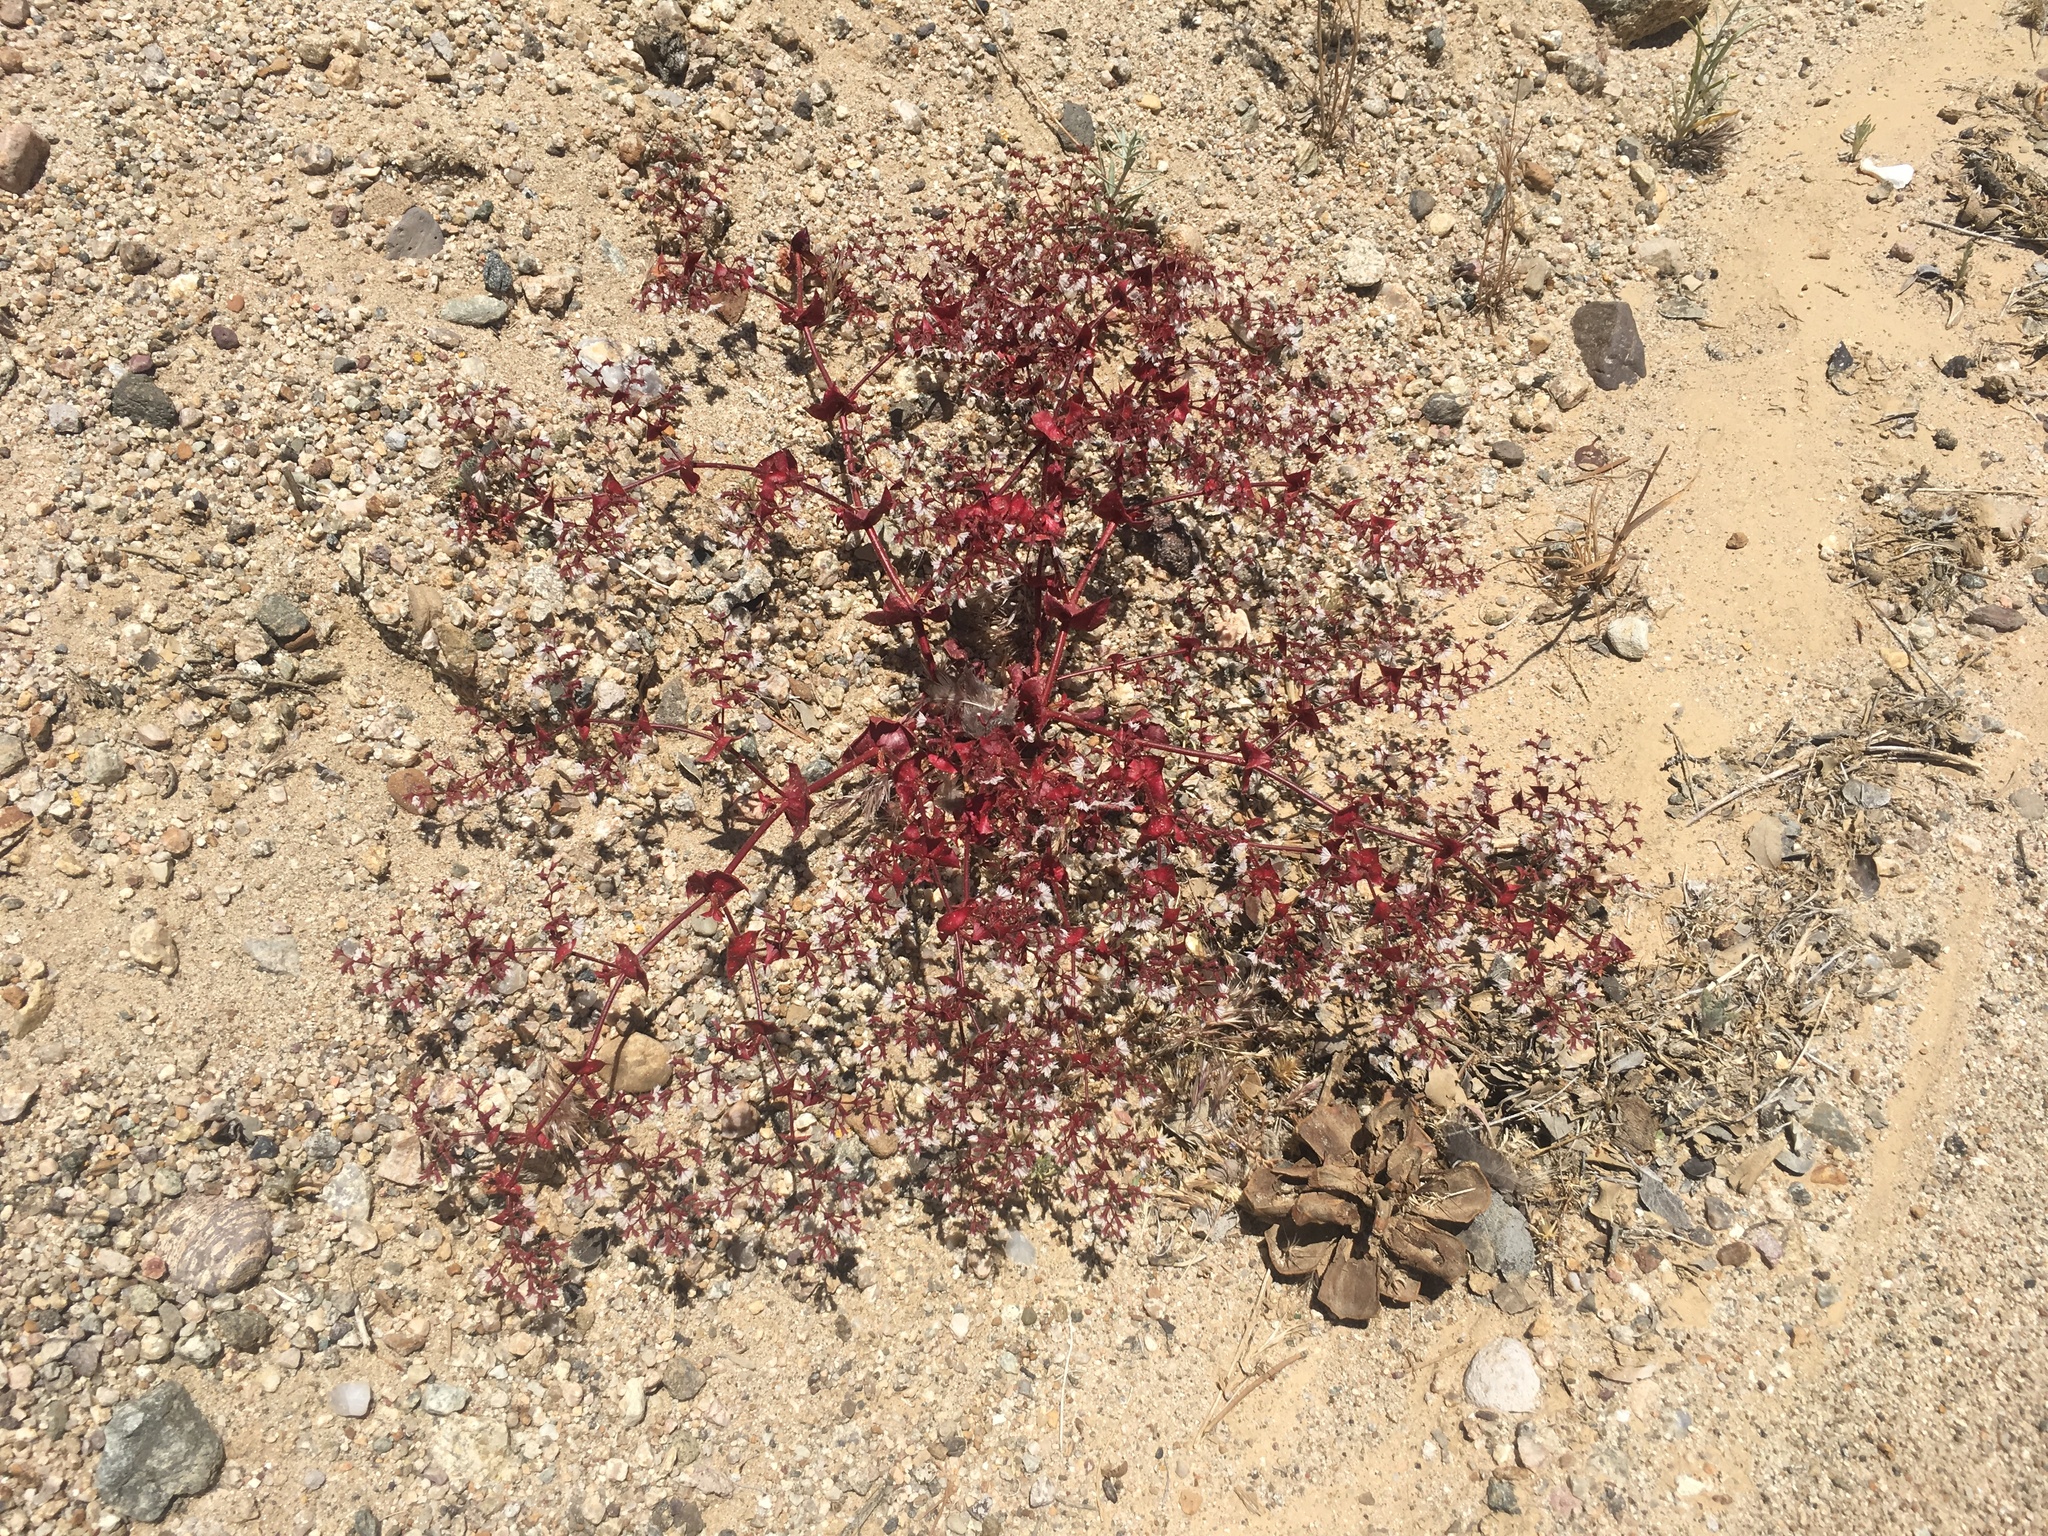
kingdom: Plantae
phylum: Tracheophyta
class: Magnoliopsida
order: Caryophyllales
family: Polygonaceae
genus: Mucronea
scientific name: Mucronea perfoliata
